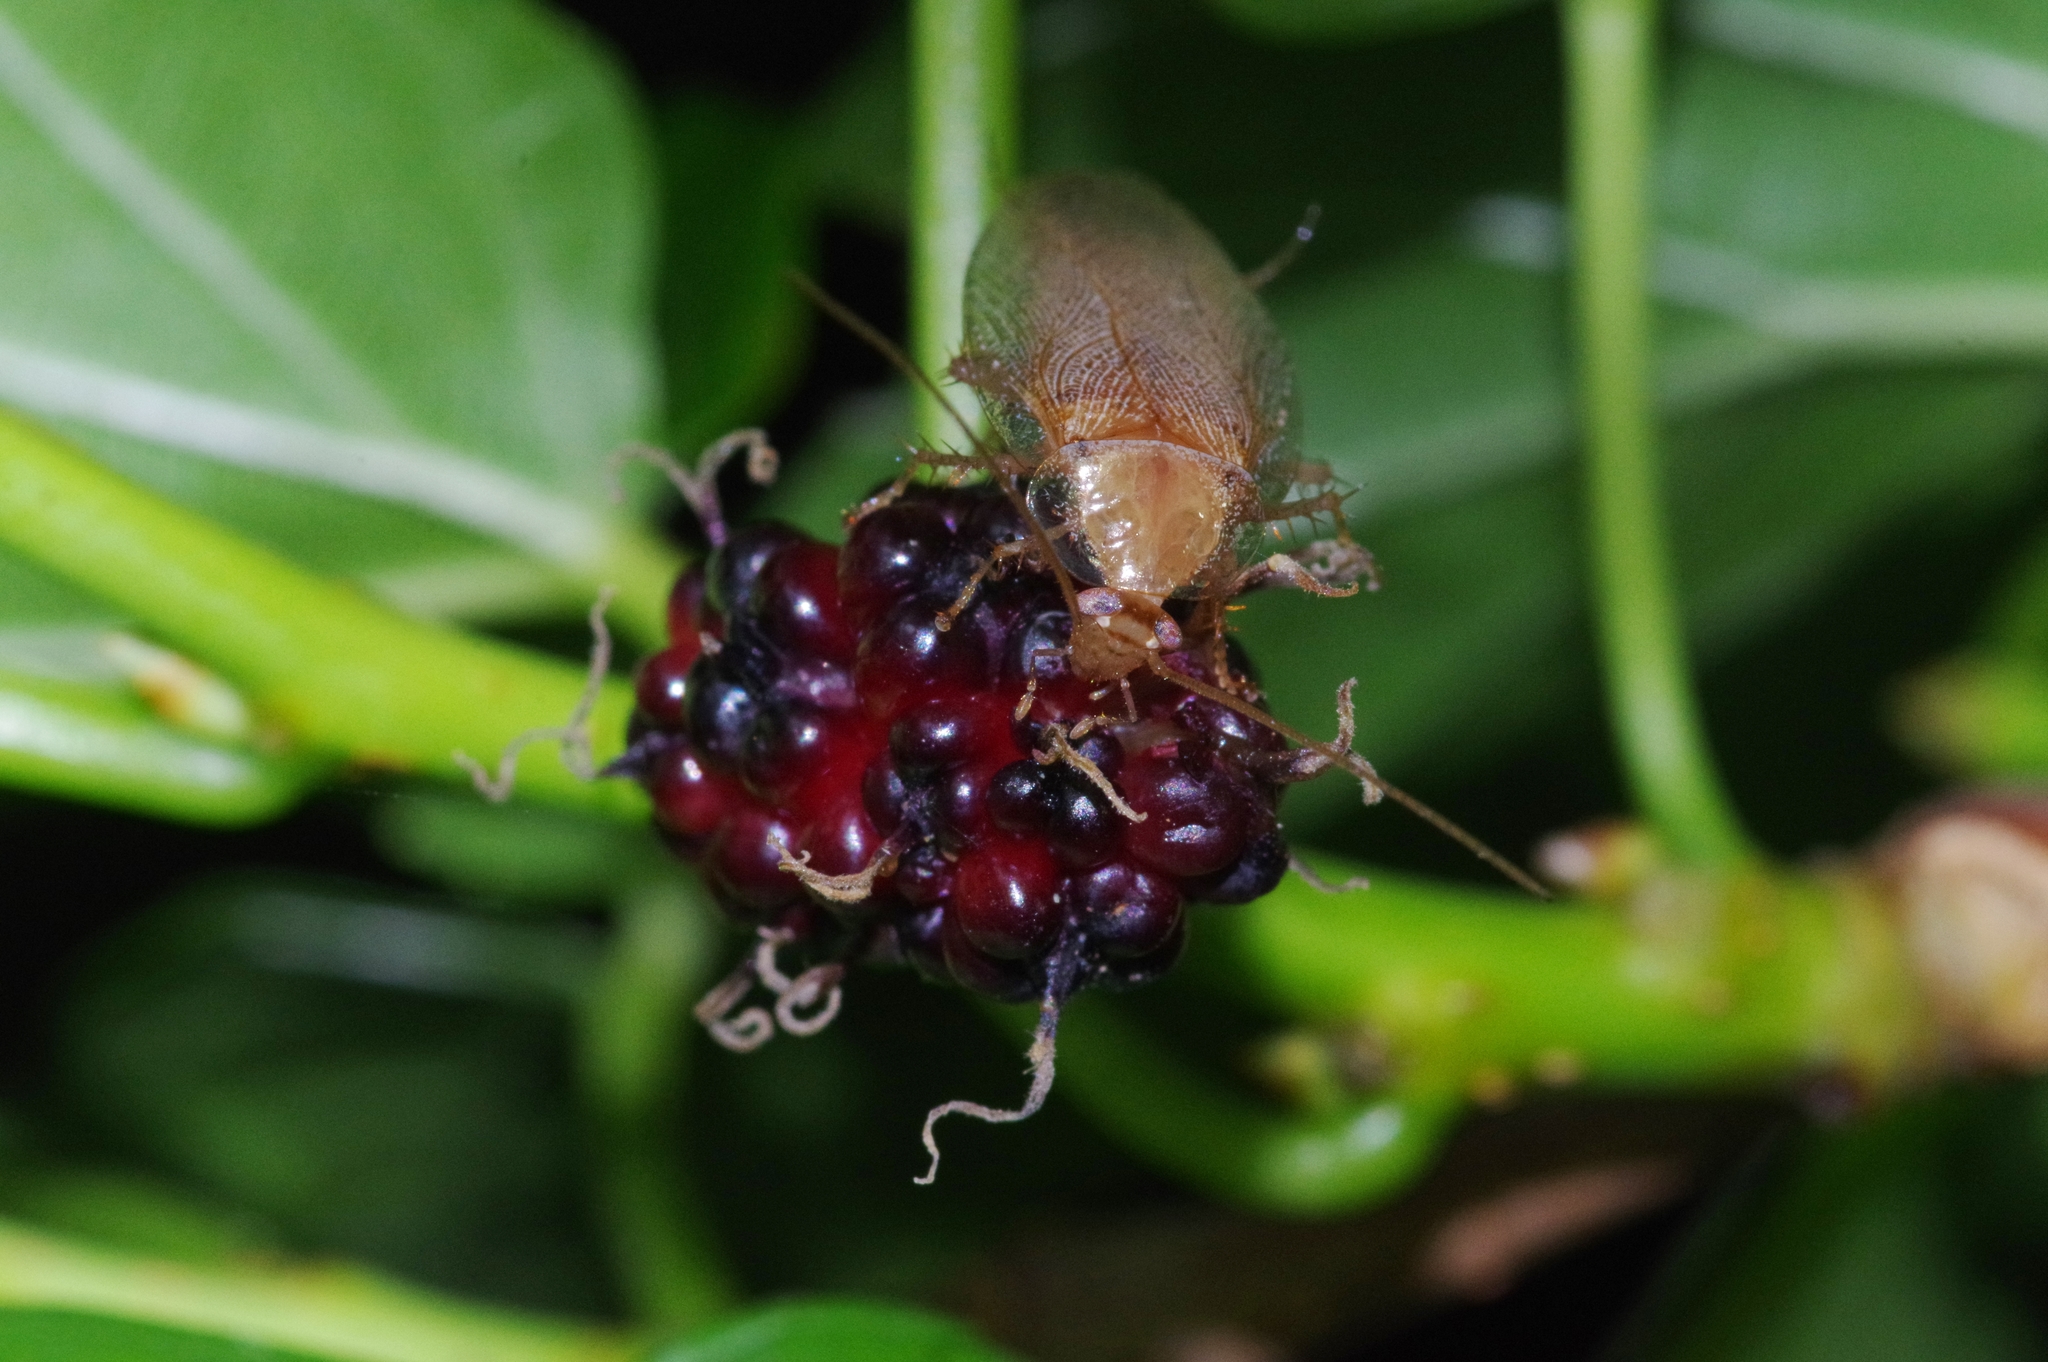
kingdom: Animalia
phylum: Arthropoda
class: Insecta
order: Blattodea
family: Ectobiidae
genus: Balta
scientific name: Balta vilis
